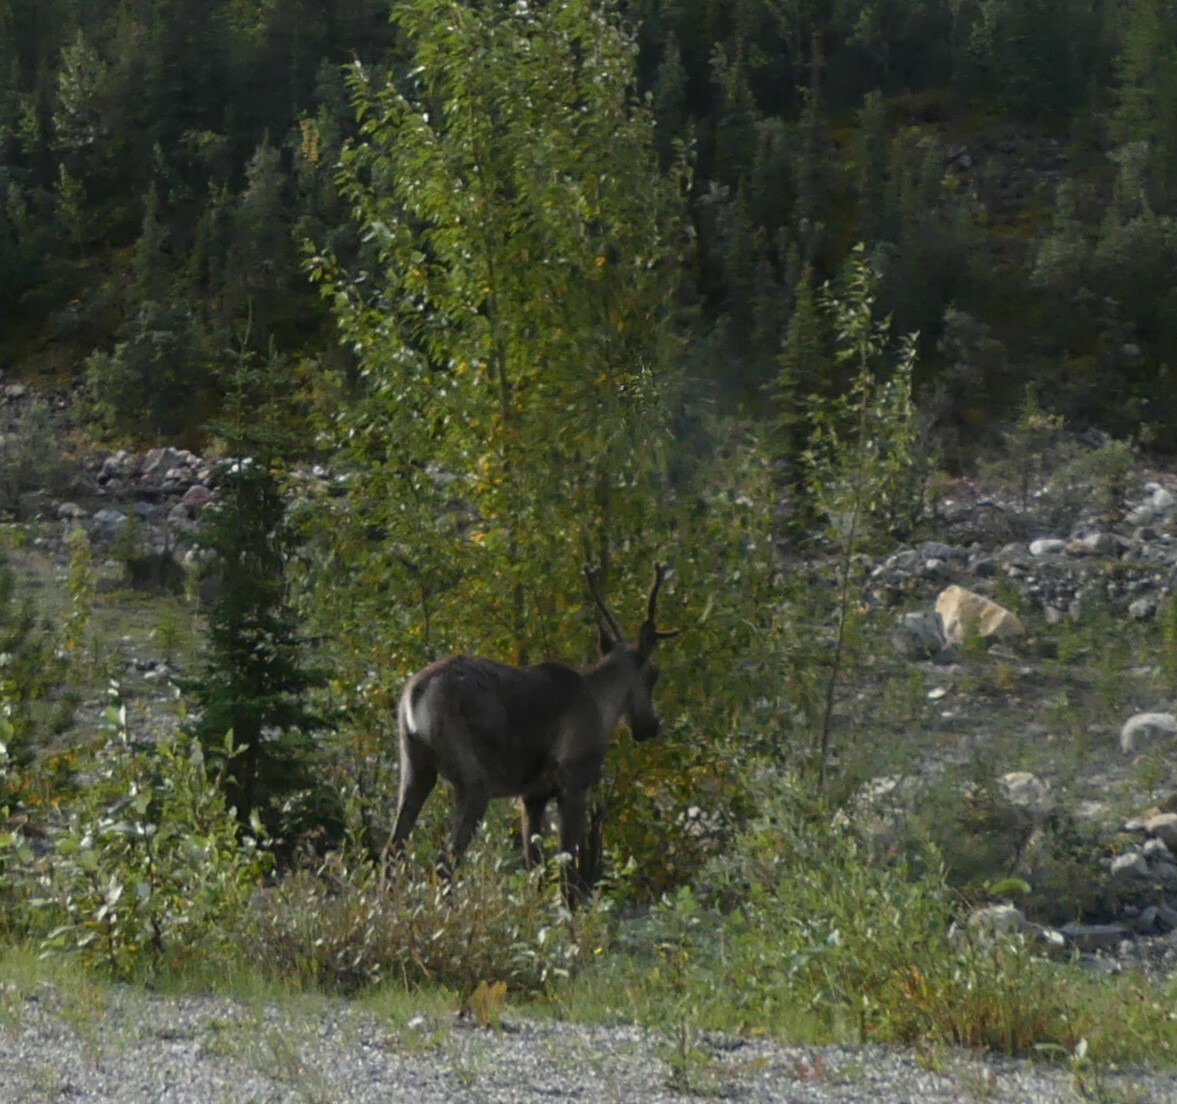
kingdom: Animalia
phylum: Chordata
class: Mammalia
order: Artiodactyla
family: Cervidae
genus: Rangifer
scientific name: Rangifer tarandus
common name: Reindeer
